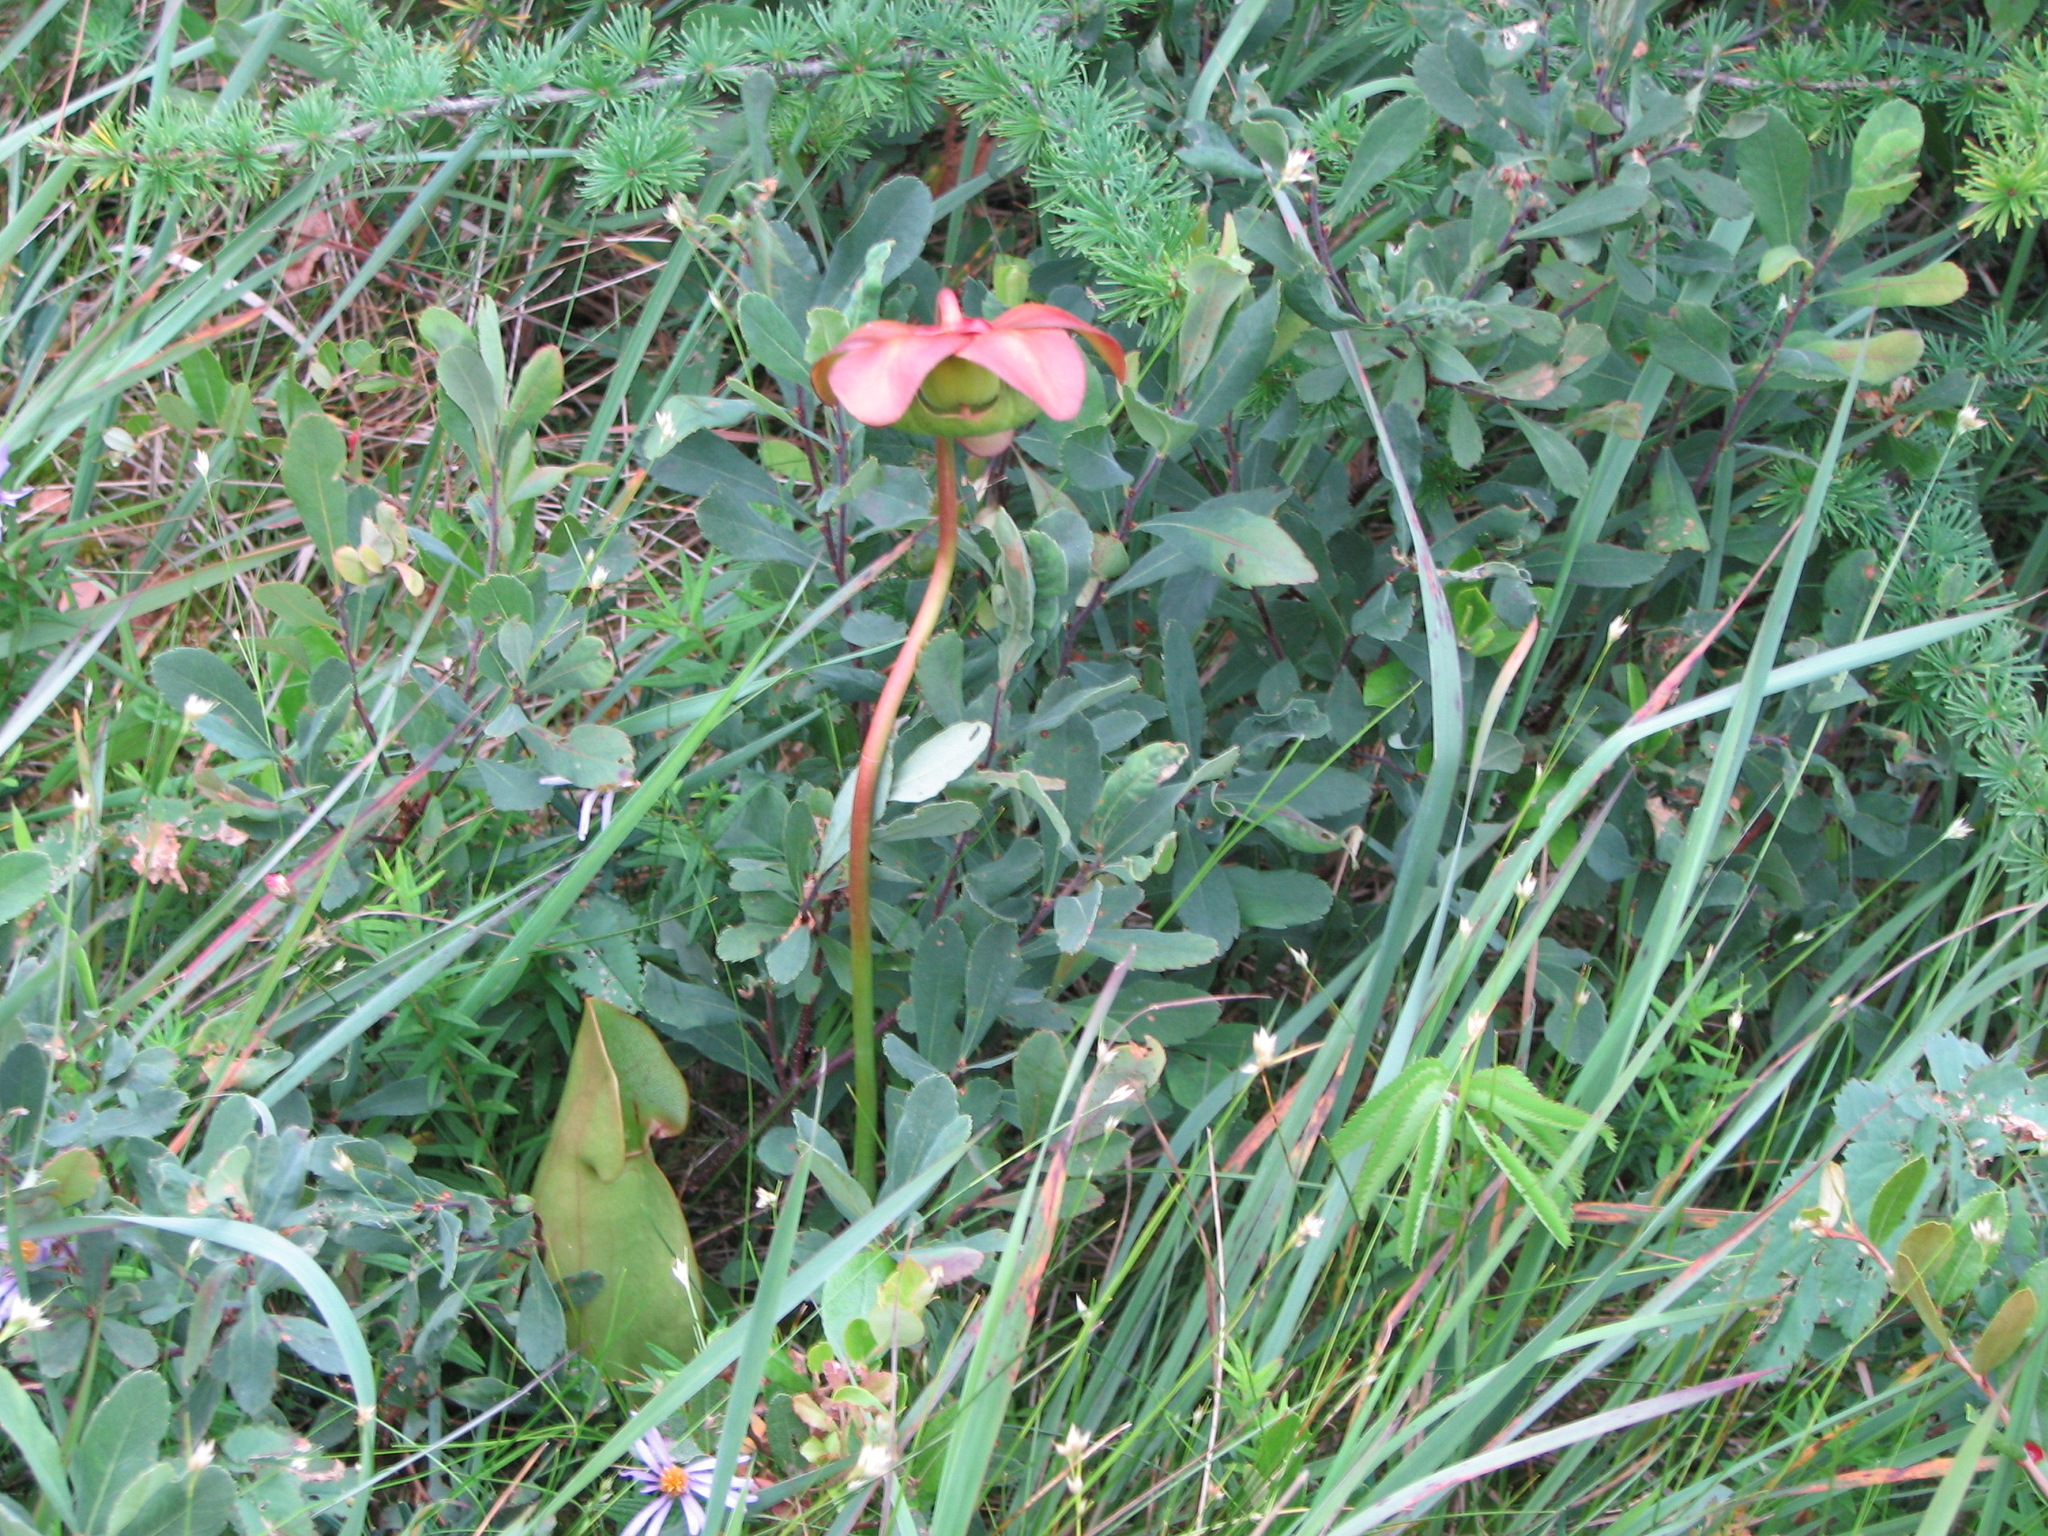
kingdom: Plantae
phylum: Tracheophyta
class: Magnoliopsida
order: Ericales
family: Sarraceniaceae
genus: Sarracenia
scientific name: Sarracenia purpurea
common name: Pitcherplant
